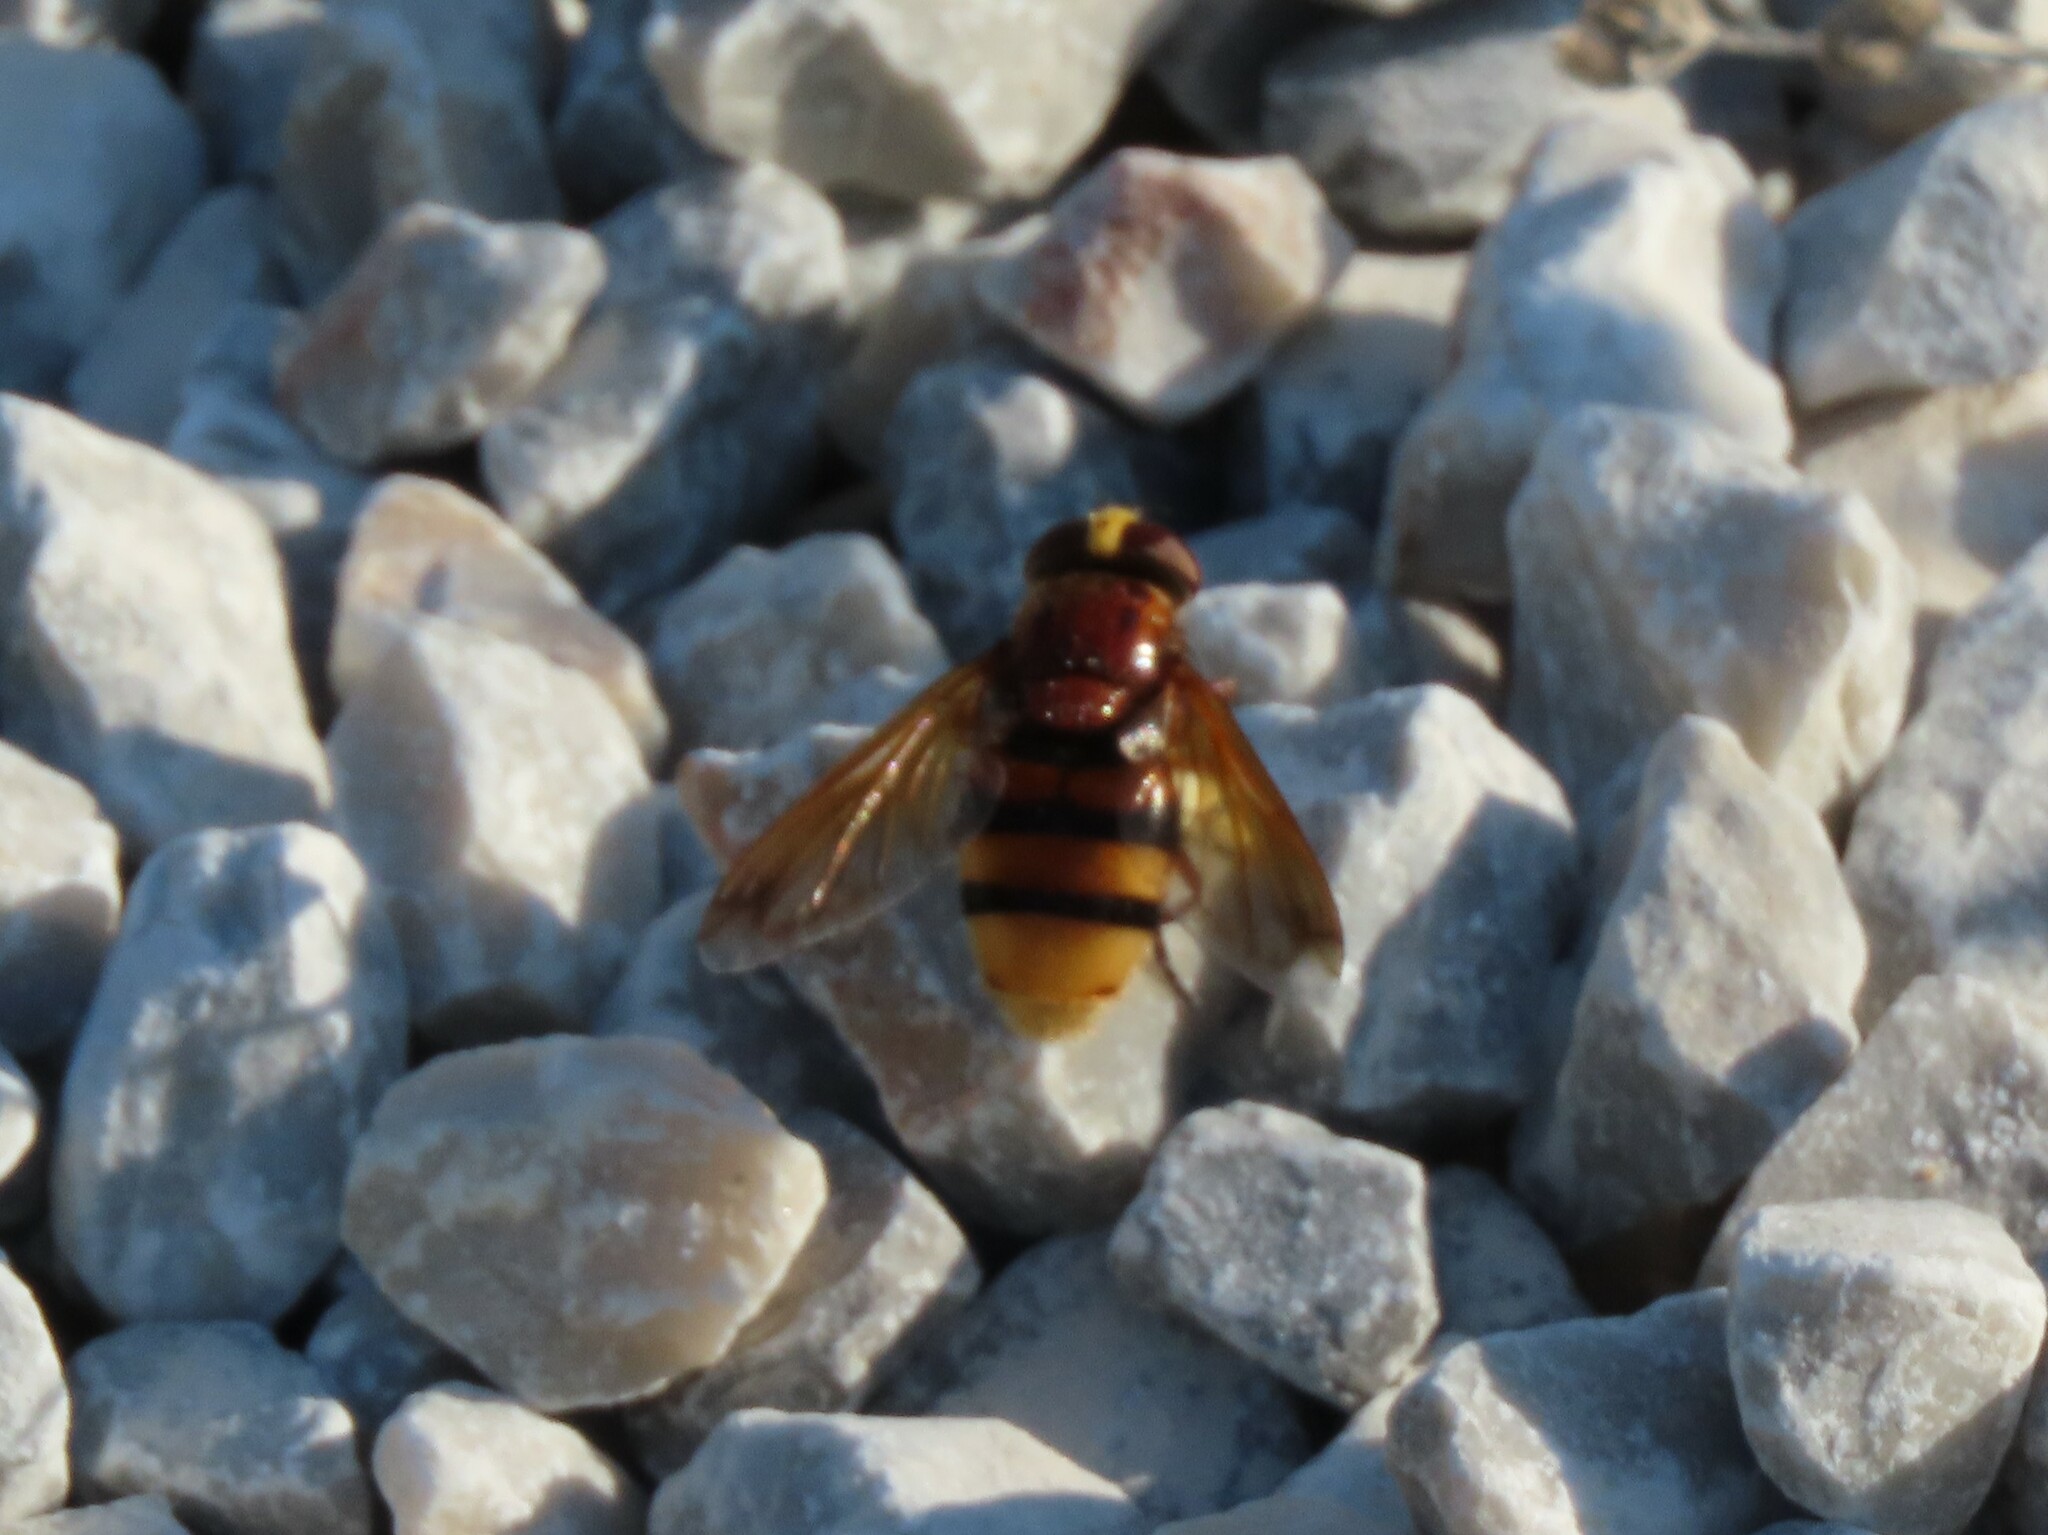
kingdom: Animalia
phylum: Arthropoda
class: Insecta
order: Diptera
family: Syrphidae
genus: Volucella
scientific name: Volucella zonaria
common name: Hornet hoverfly
